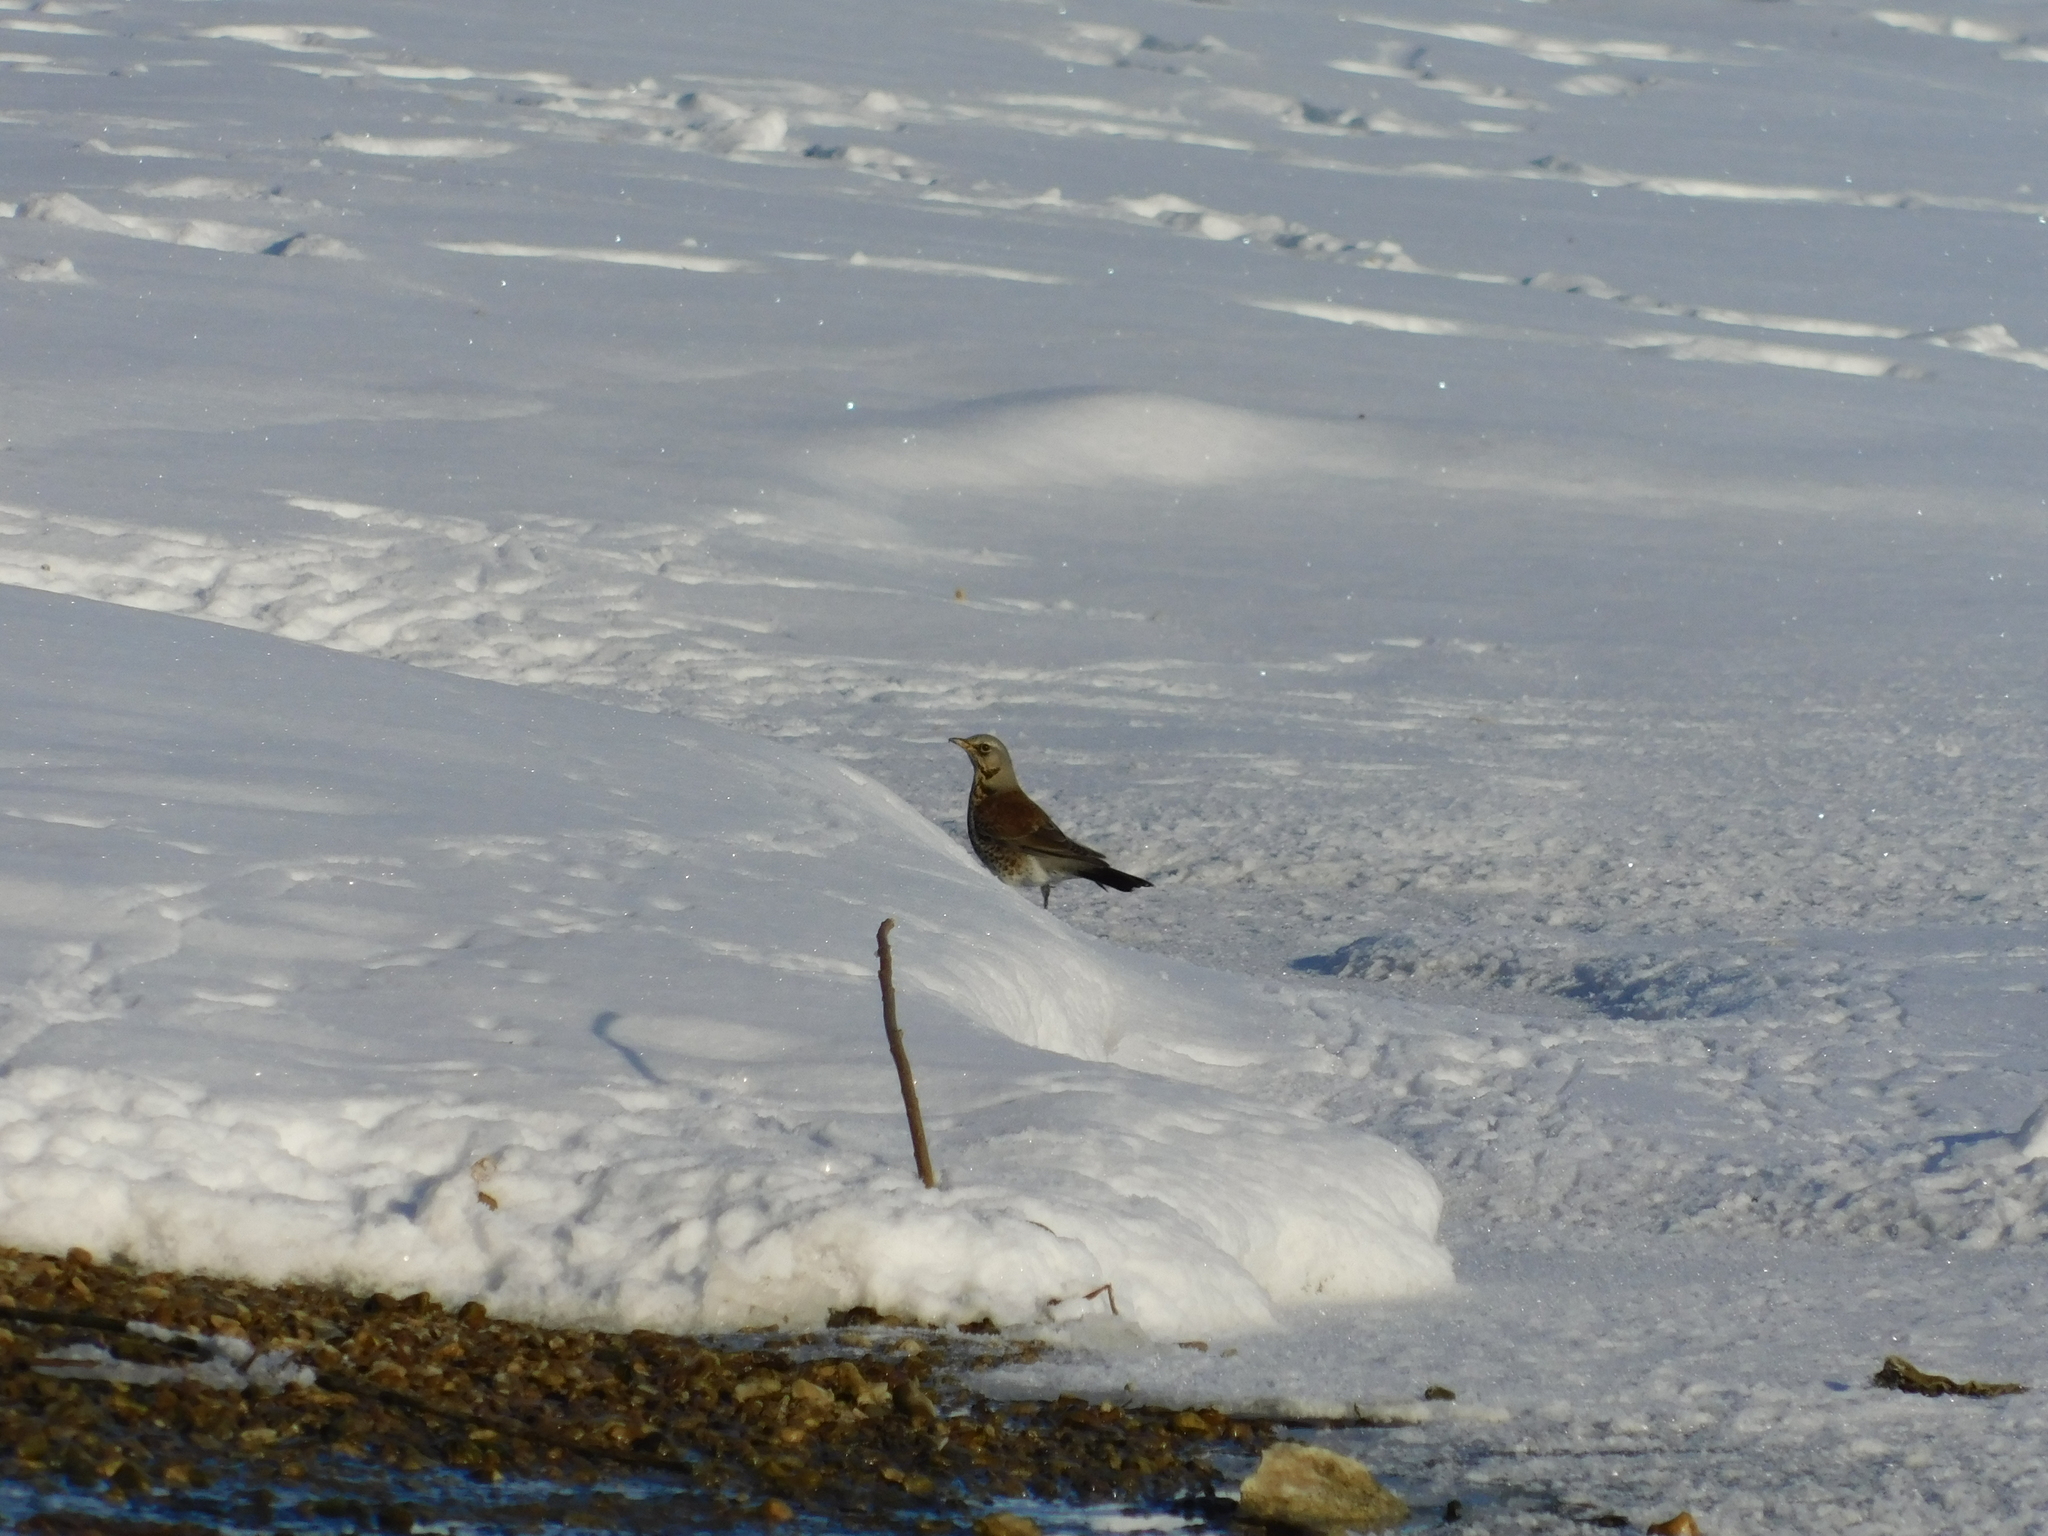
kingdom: Animalia
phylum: Chordata
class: Aves
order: Passeriformes
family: Turdidae
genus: Turdus
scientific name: Turdus pilaris
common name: Fieldfare
